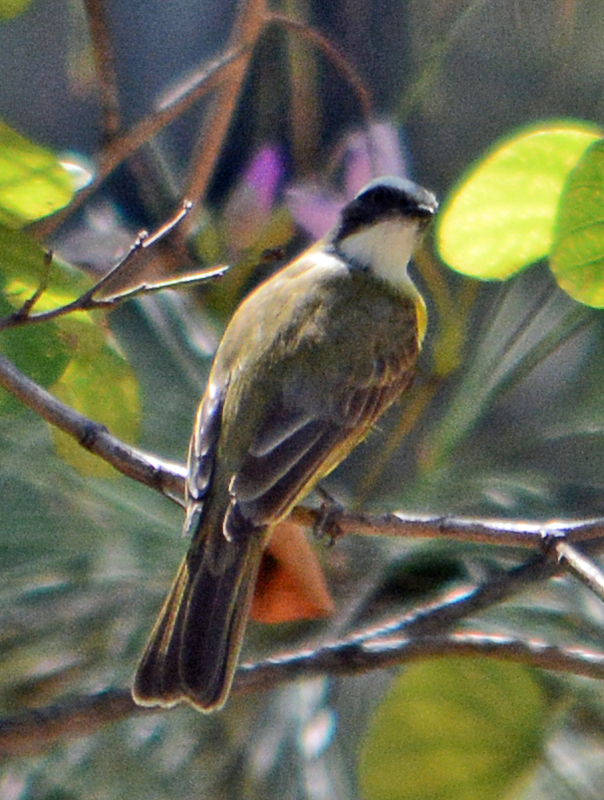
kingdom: Animalia
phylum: Chordata
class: Aves
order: Passeriformes
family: Tyrannidae
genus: Myiozetetes
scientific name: Myiozetetes similis
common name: Social flycatcher
